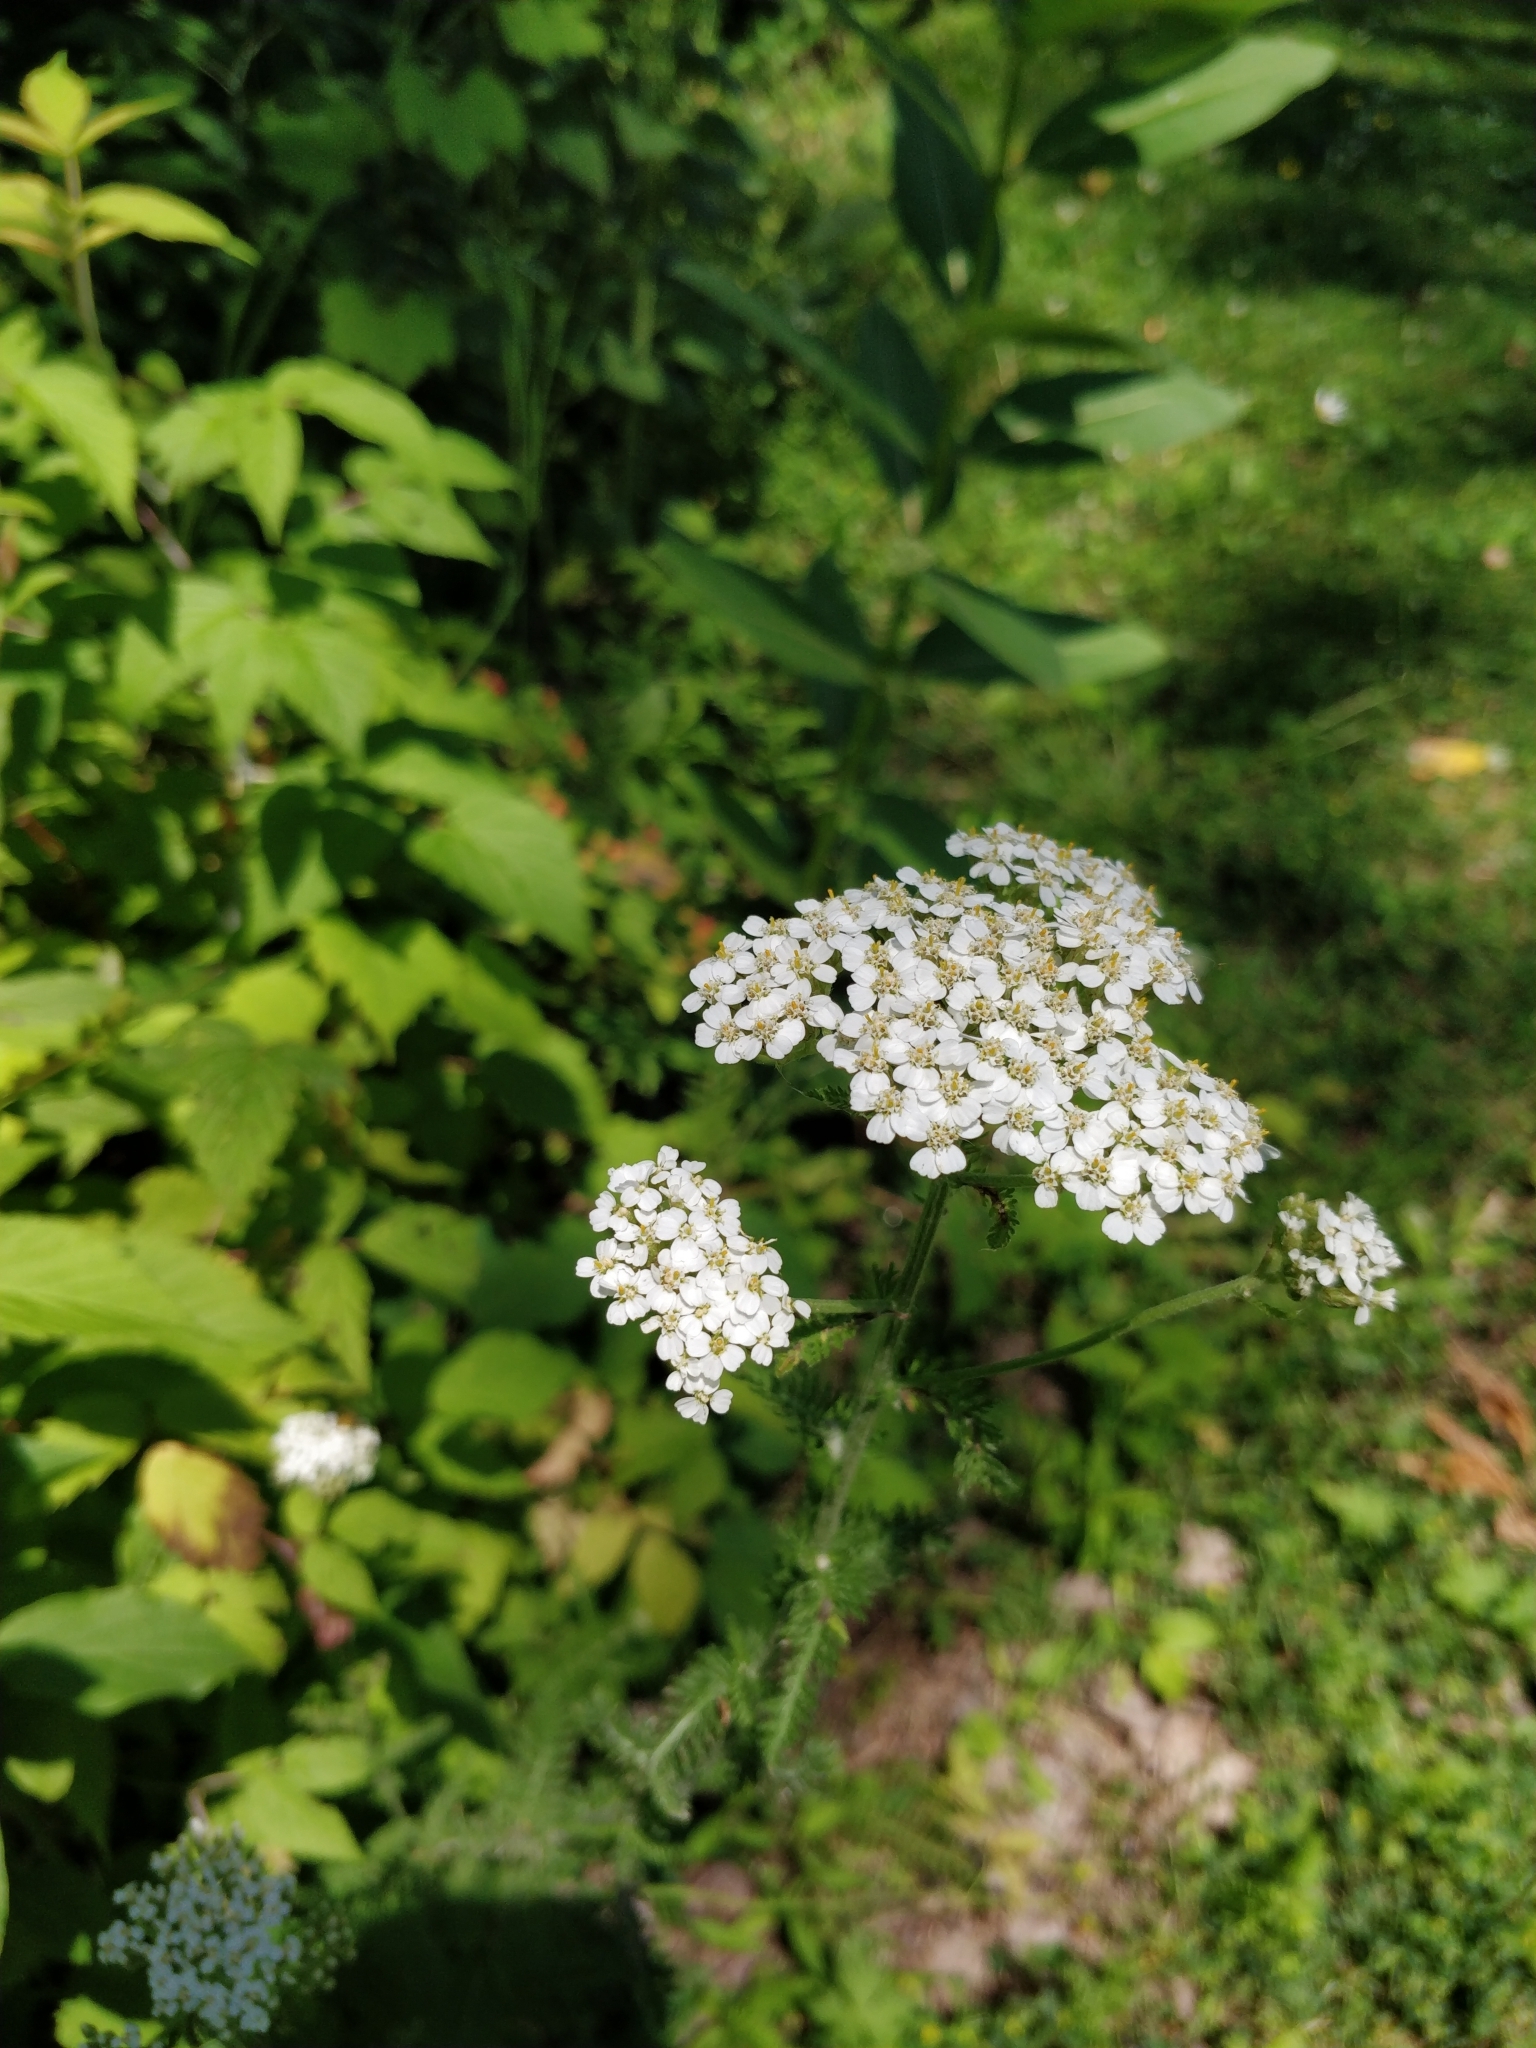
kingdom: Plantae
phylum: Tracheophyta
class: Magnoliopsida
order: Asterales
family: Asteraceae
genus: Achillea
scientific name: Achillea millefolium
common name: Yarrow
